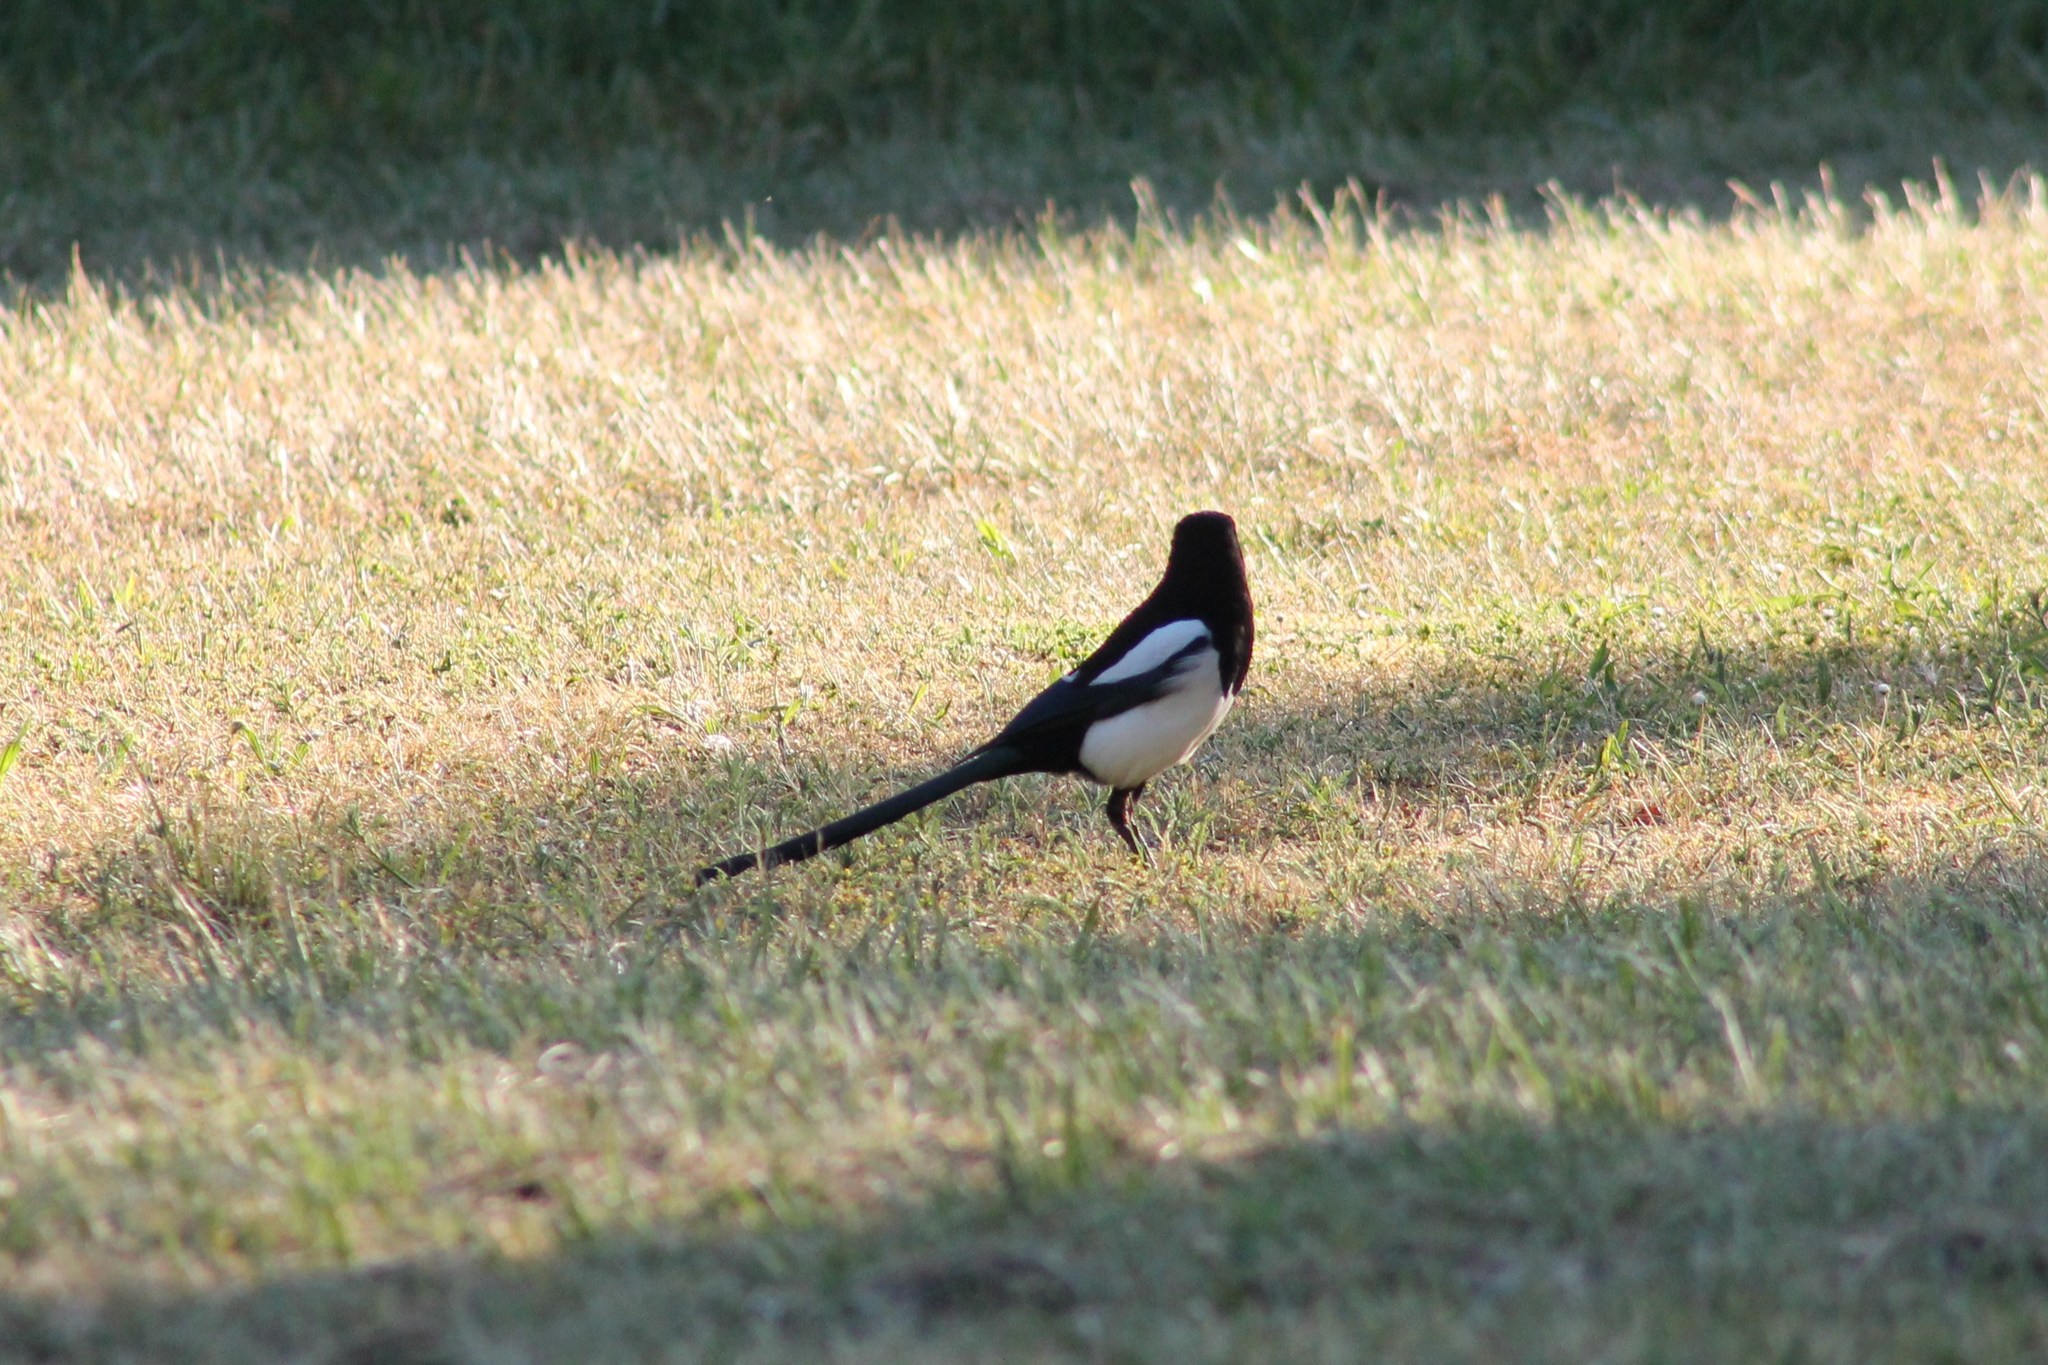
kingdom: Animalia
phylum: Chordata
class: Aves
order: Passeriformes
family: Corvidae
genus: Pica
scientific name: Pica pica
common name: Eurasian magpie
